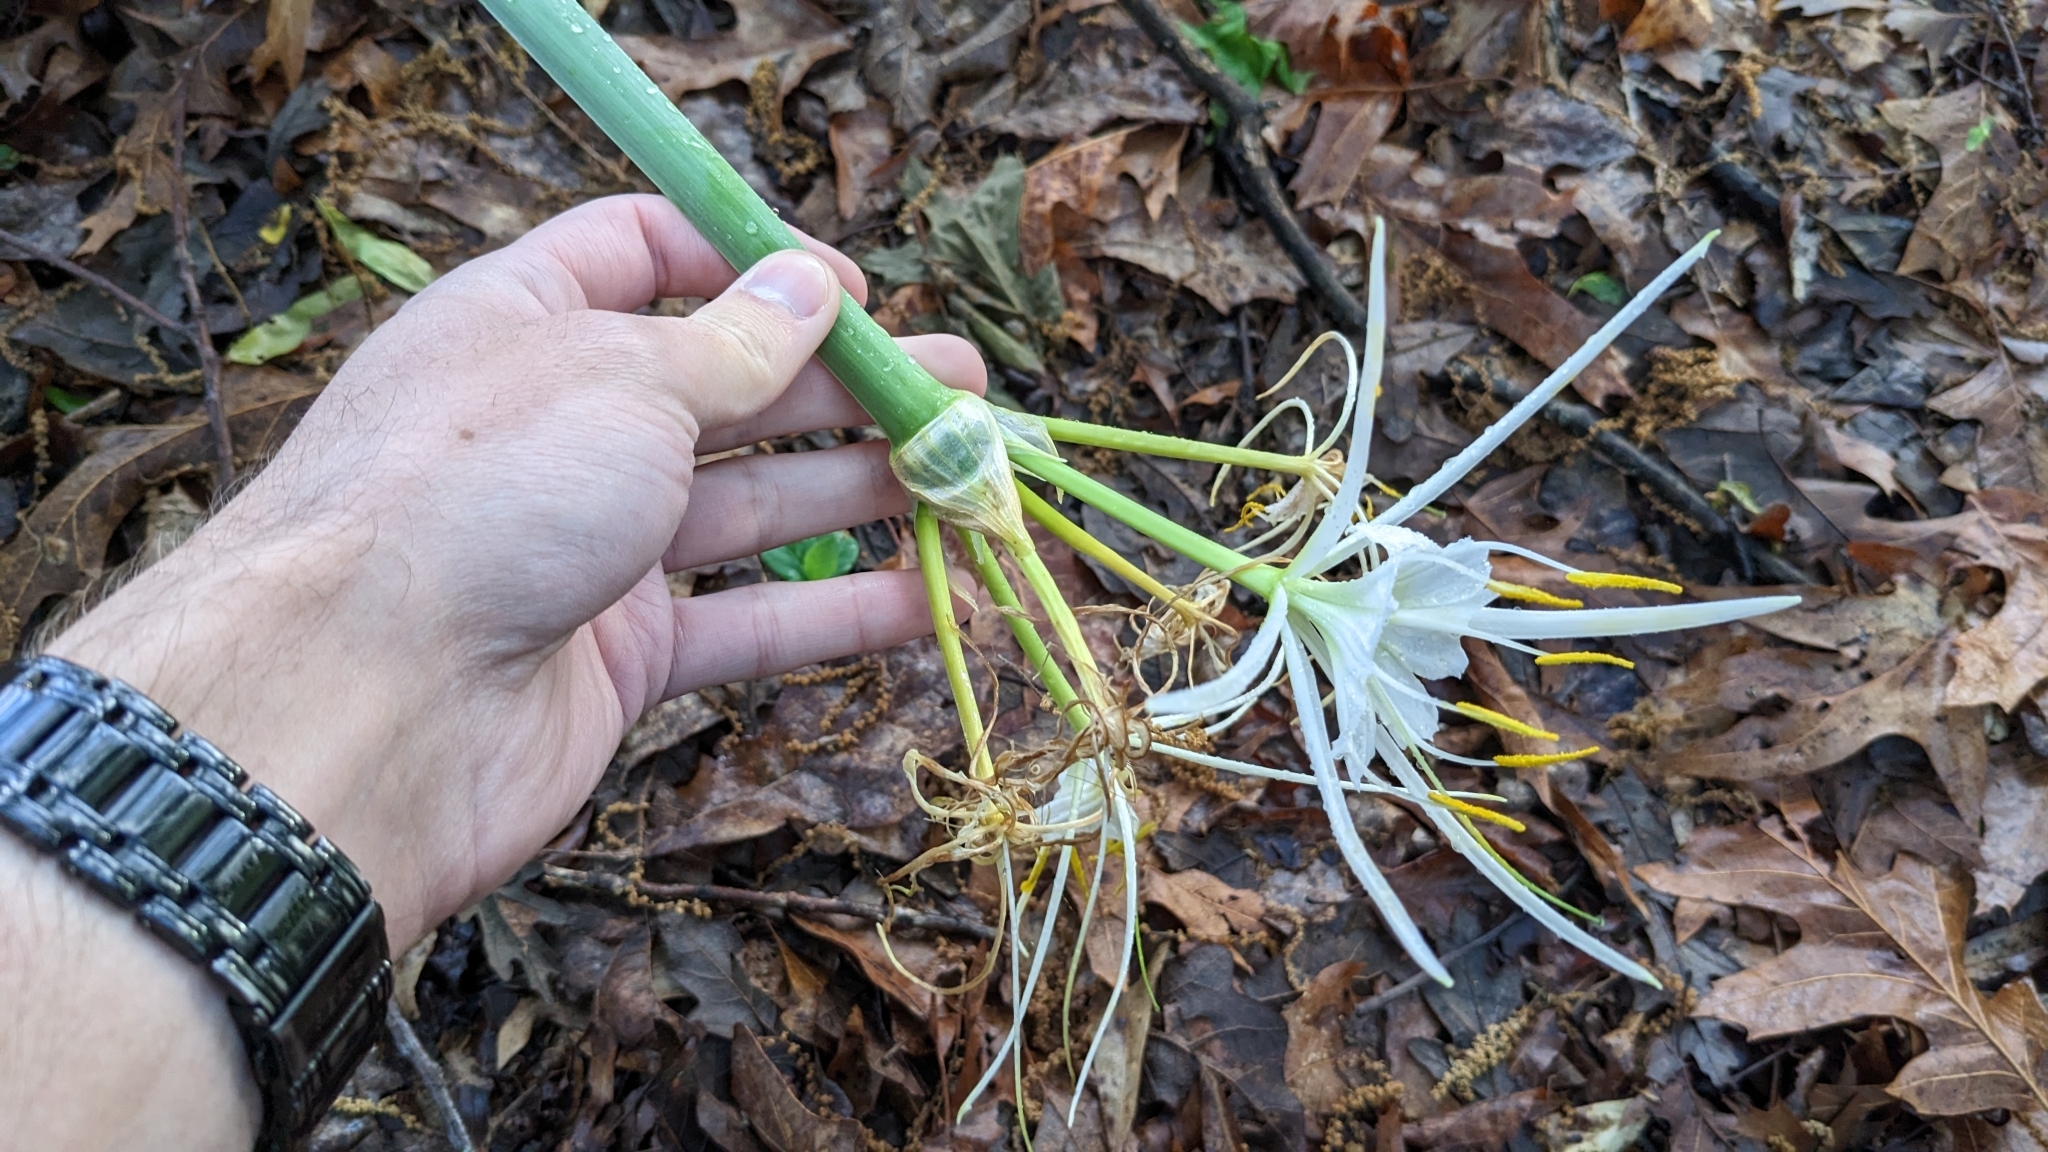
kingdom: Plantae
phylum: Tracheophyta
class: Liliopsida
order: Asparagales
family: Amaryllidaceae
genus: Hymenocallis
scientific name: Hymenocallis liriosme
